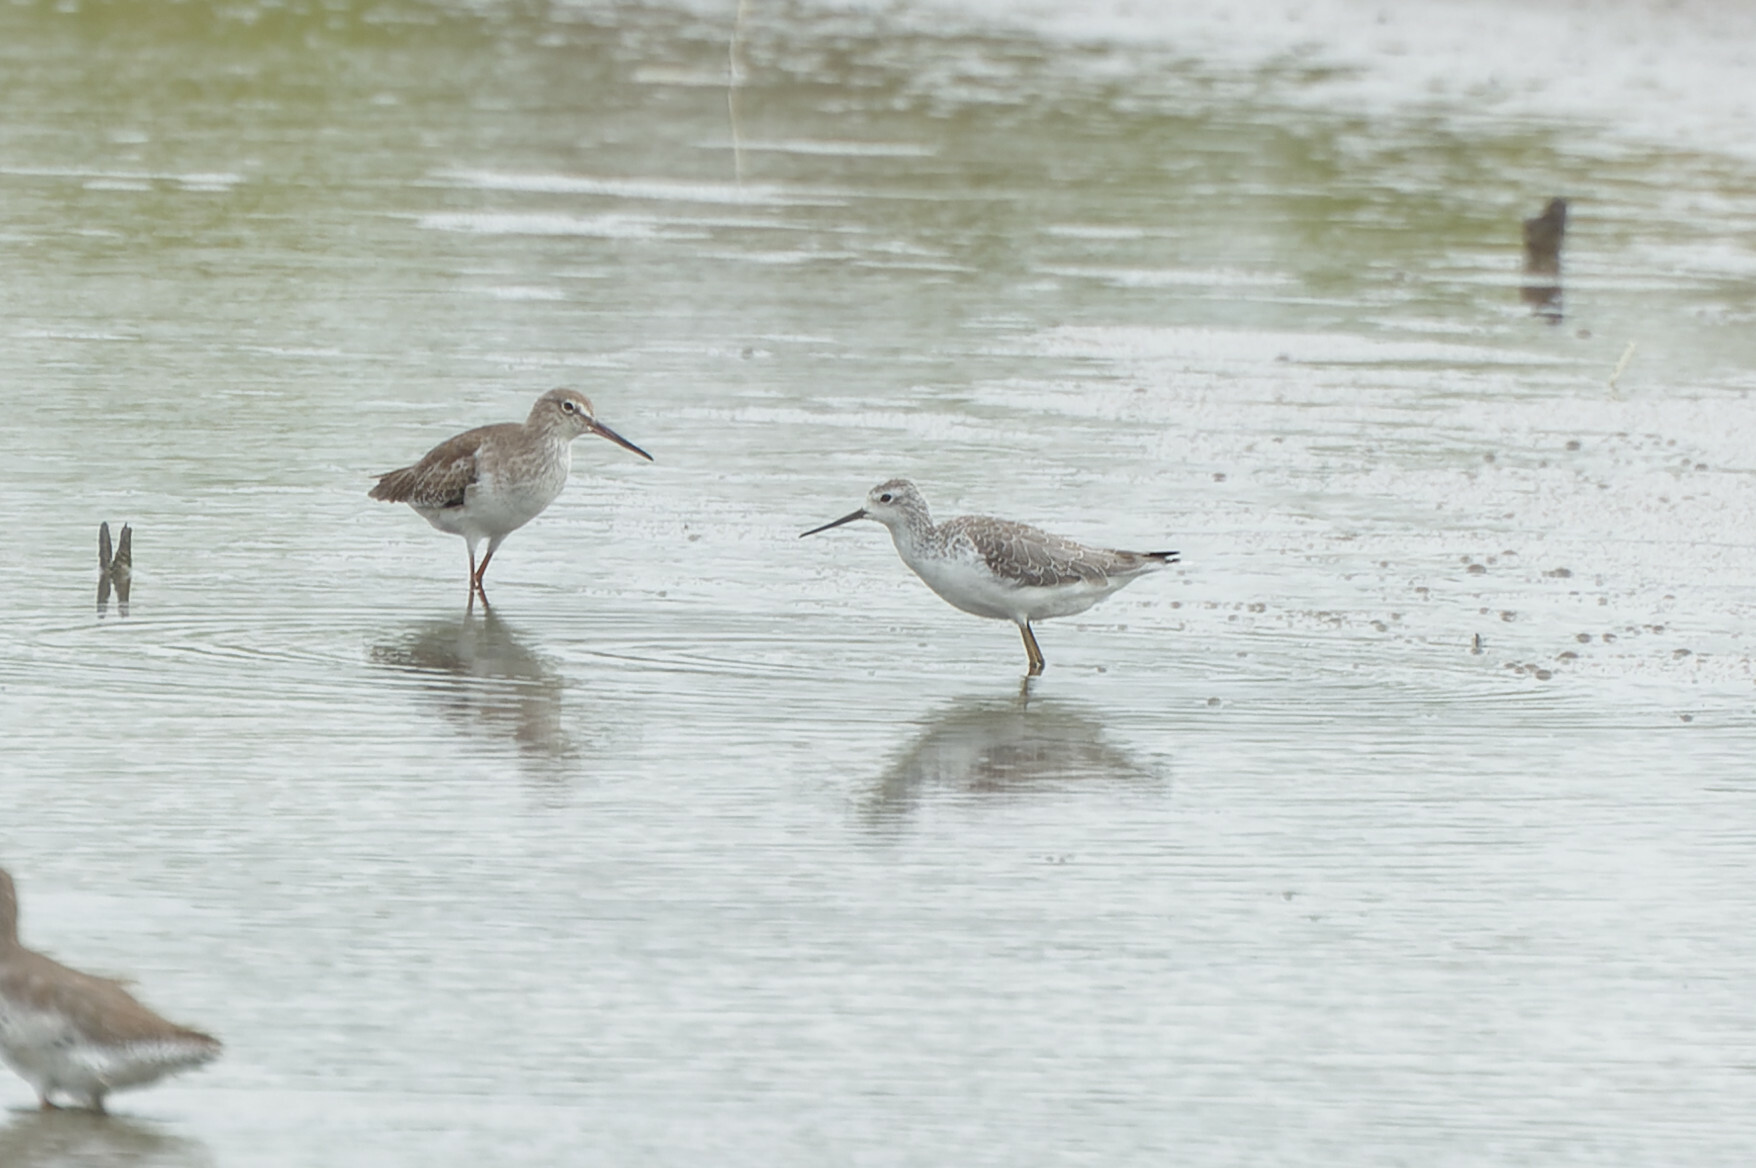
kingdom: Animalia
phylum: Chordata
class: Aves
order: Charadriiformes
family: Scolopacidae
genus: Tringa
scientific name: Tringa stagnatilis
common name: Marsh sandpiper
